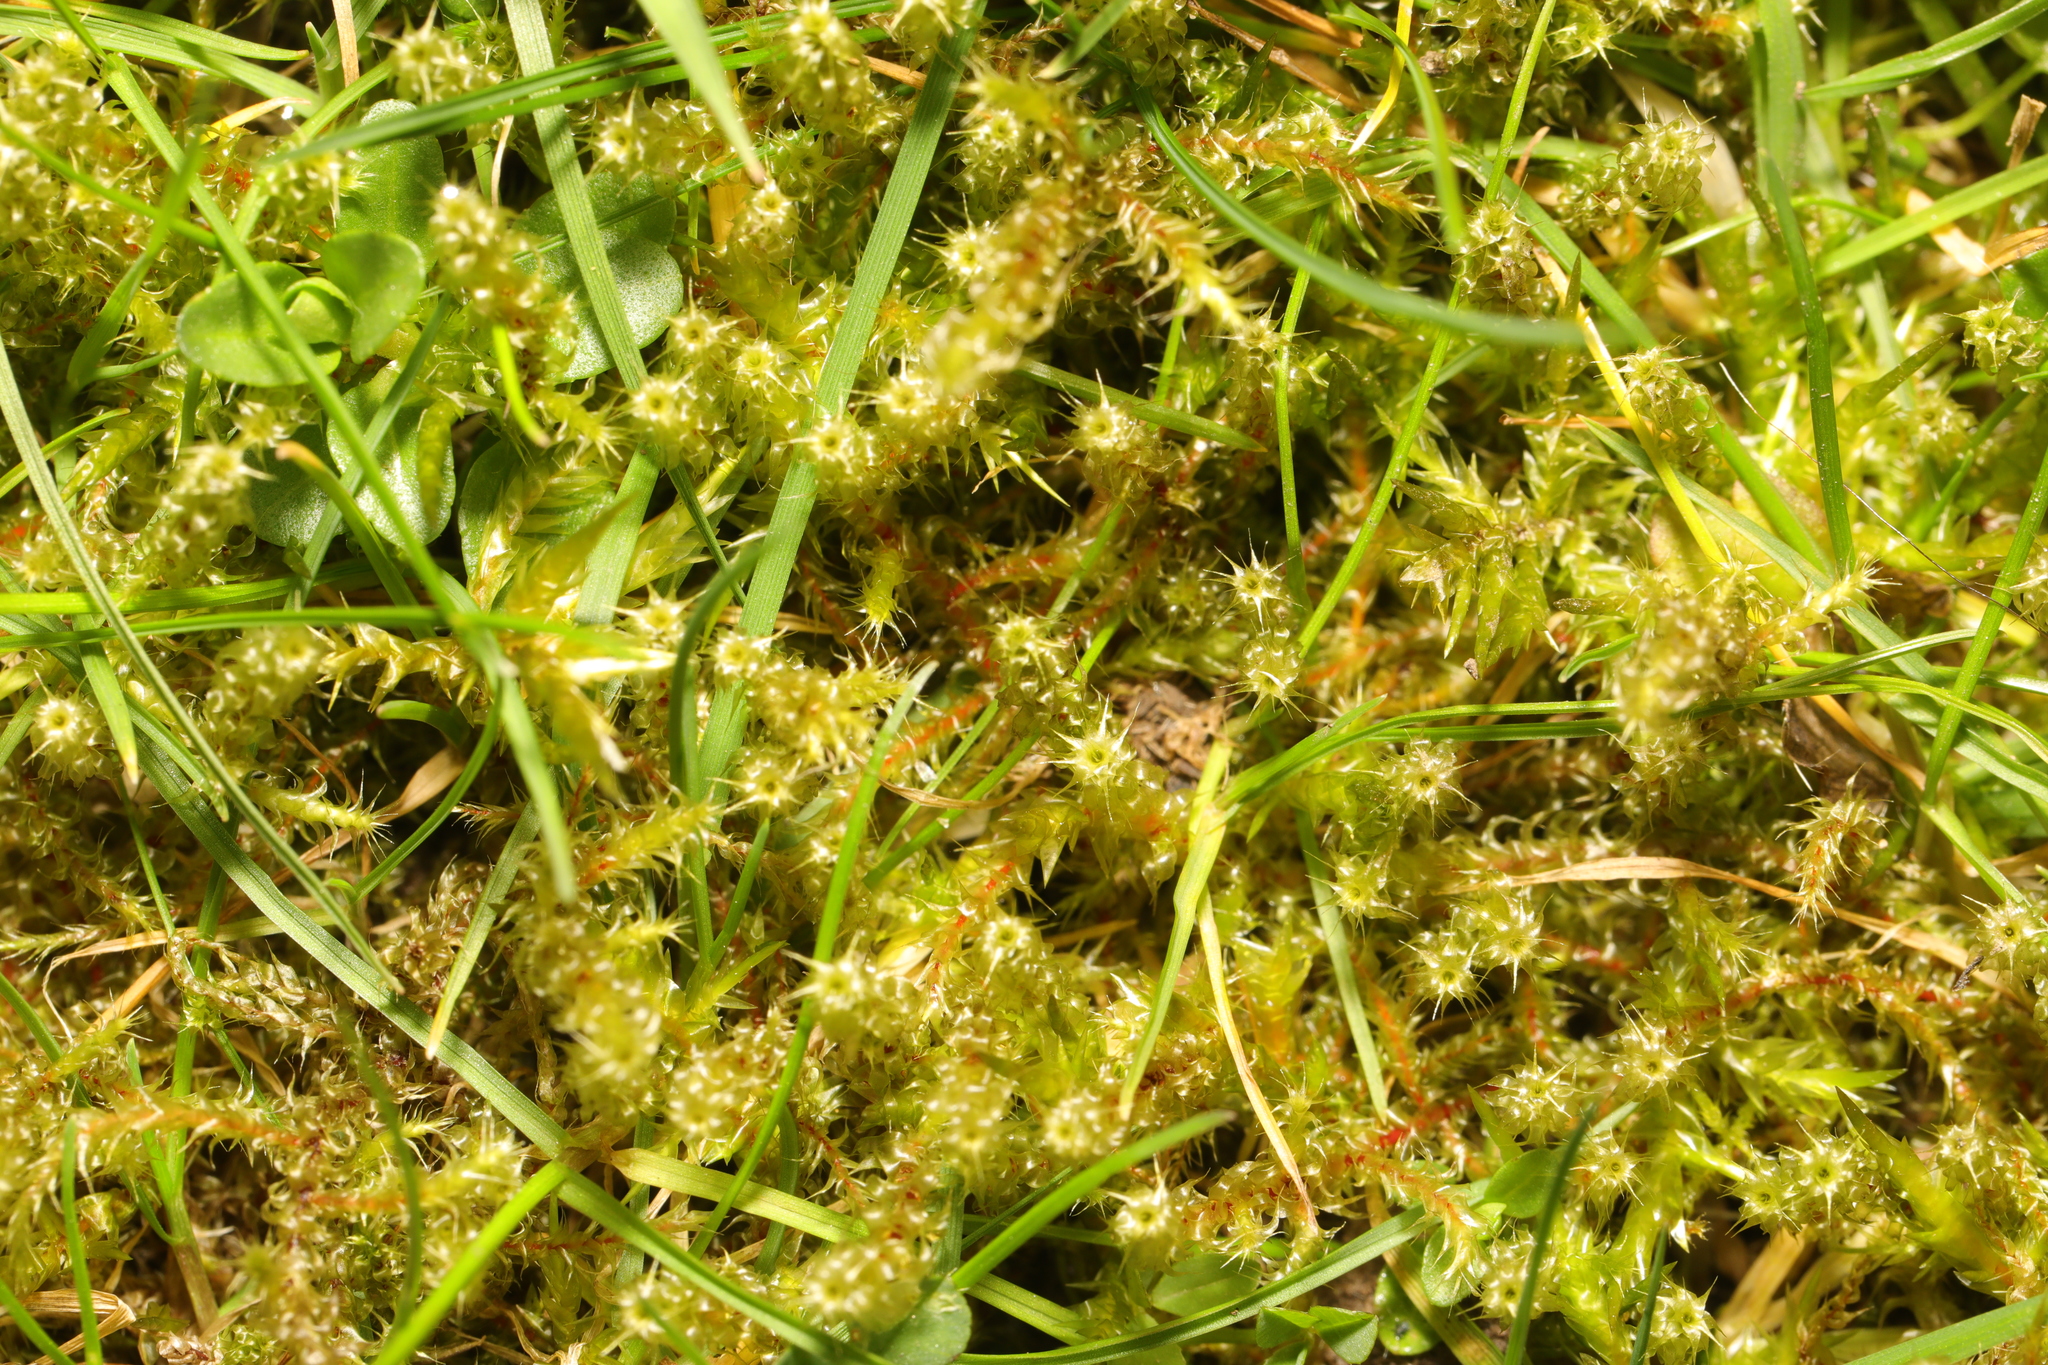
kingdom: Plantae
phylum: Bryophyta
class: Bryopsida
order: Hypnales
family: Hylocomiaceae
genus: Rhytidiadelphus
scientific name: Rhytidiadelphus squarrosus
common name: Springy turf-moss
